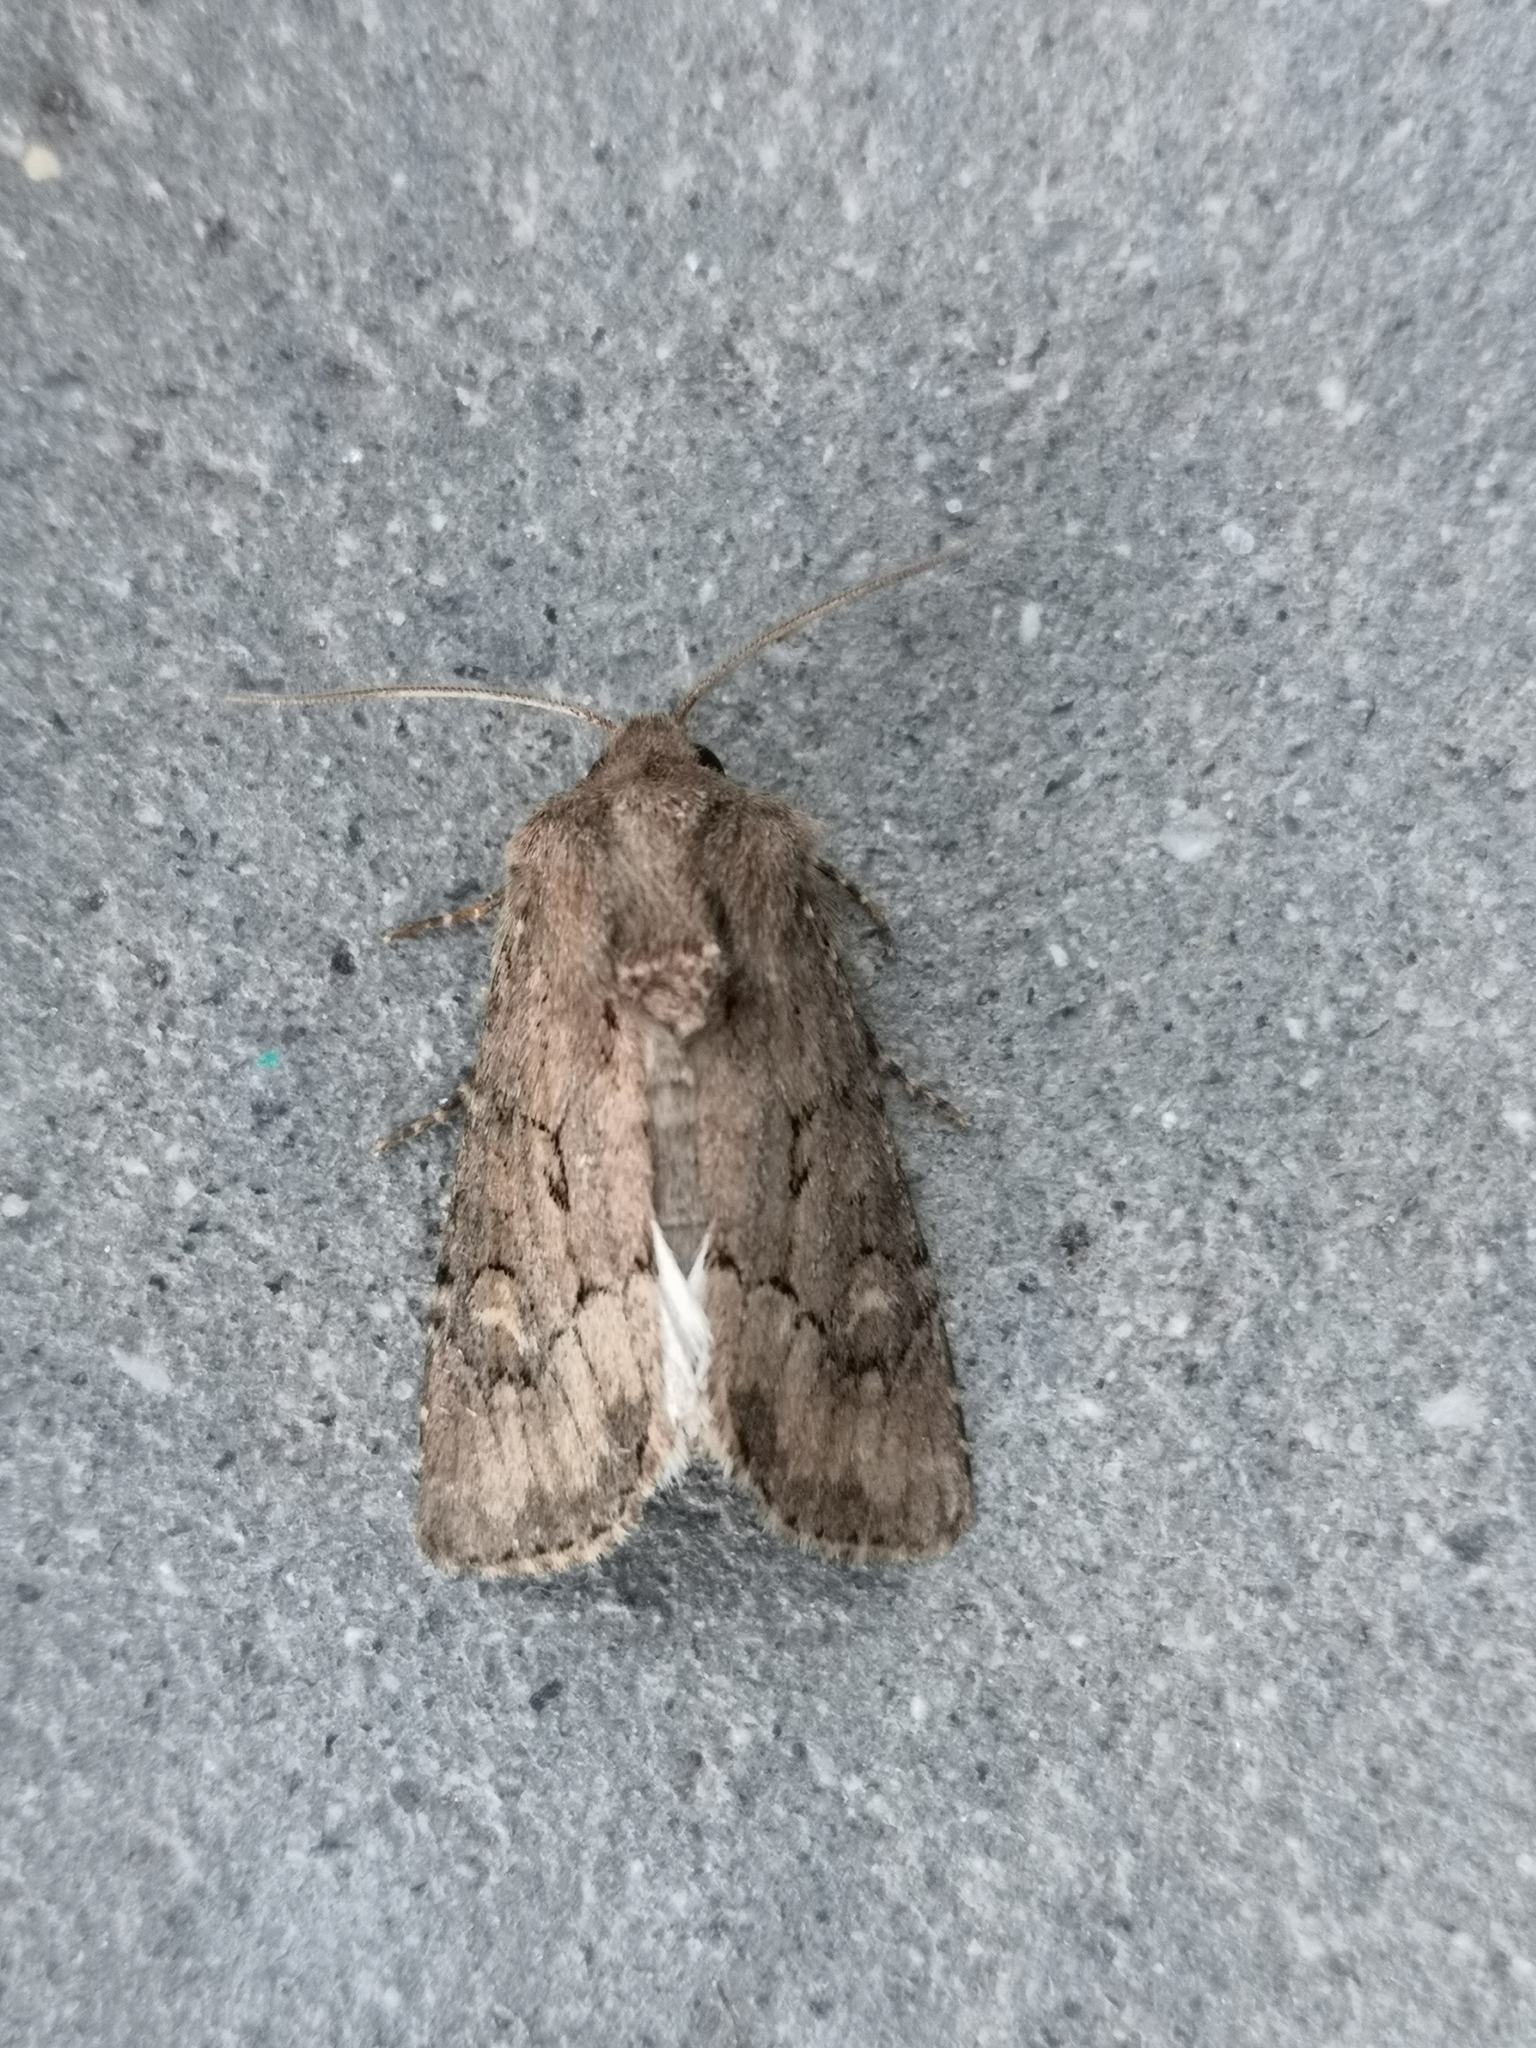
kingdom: Animalia
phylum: Arthropoda
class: Insecta
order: Lepidoptera
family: Noctuidae
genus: Luperina
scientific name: Luperina testacea
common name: Flounced rustic
